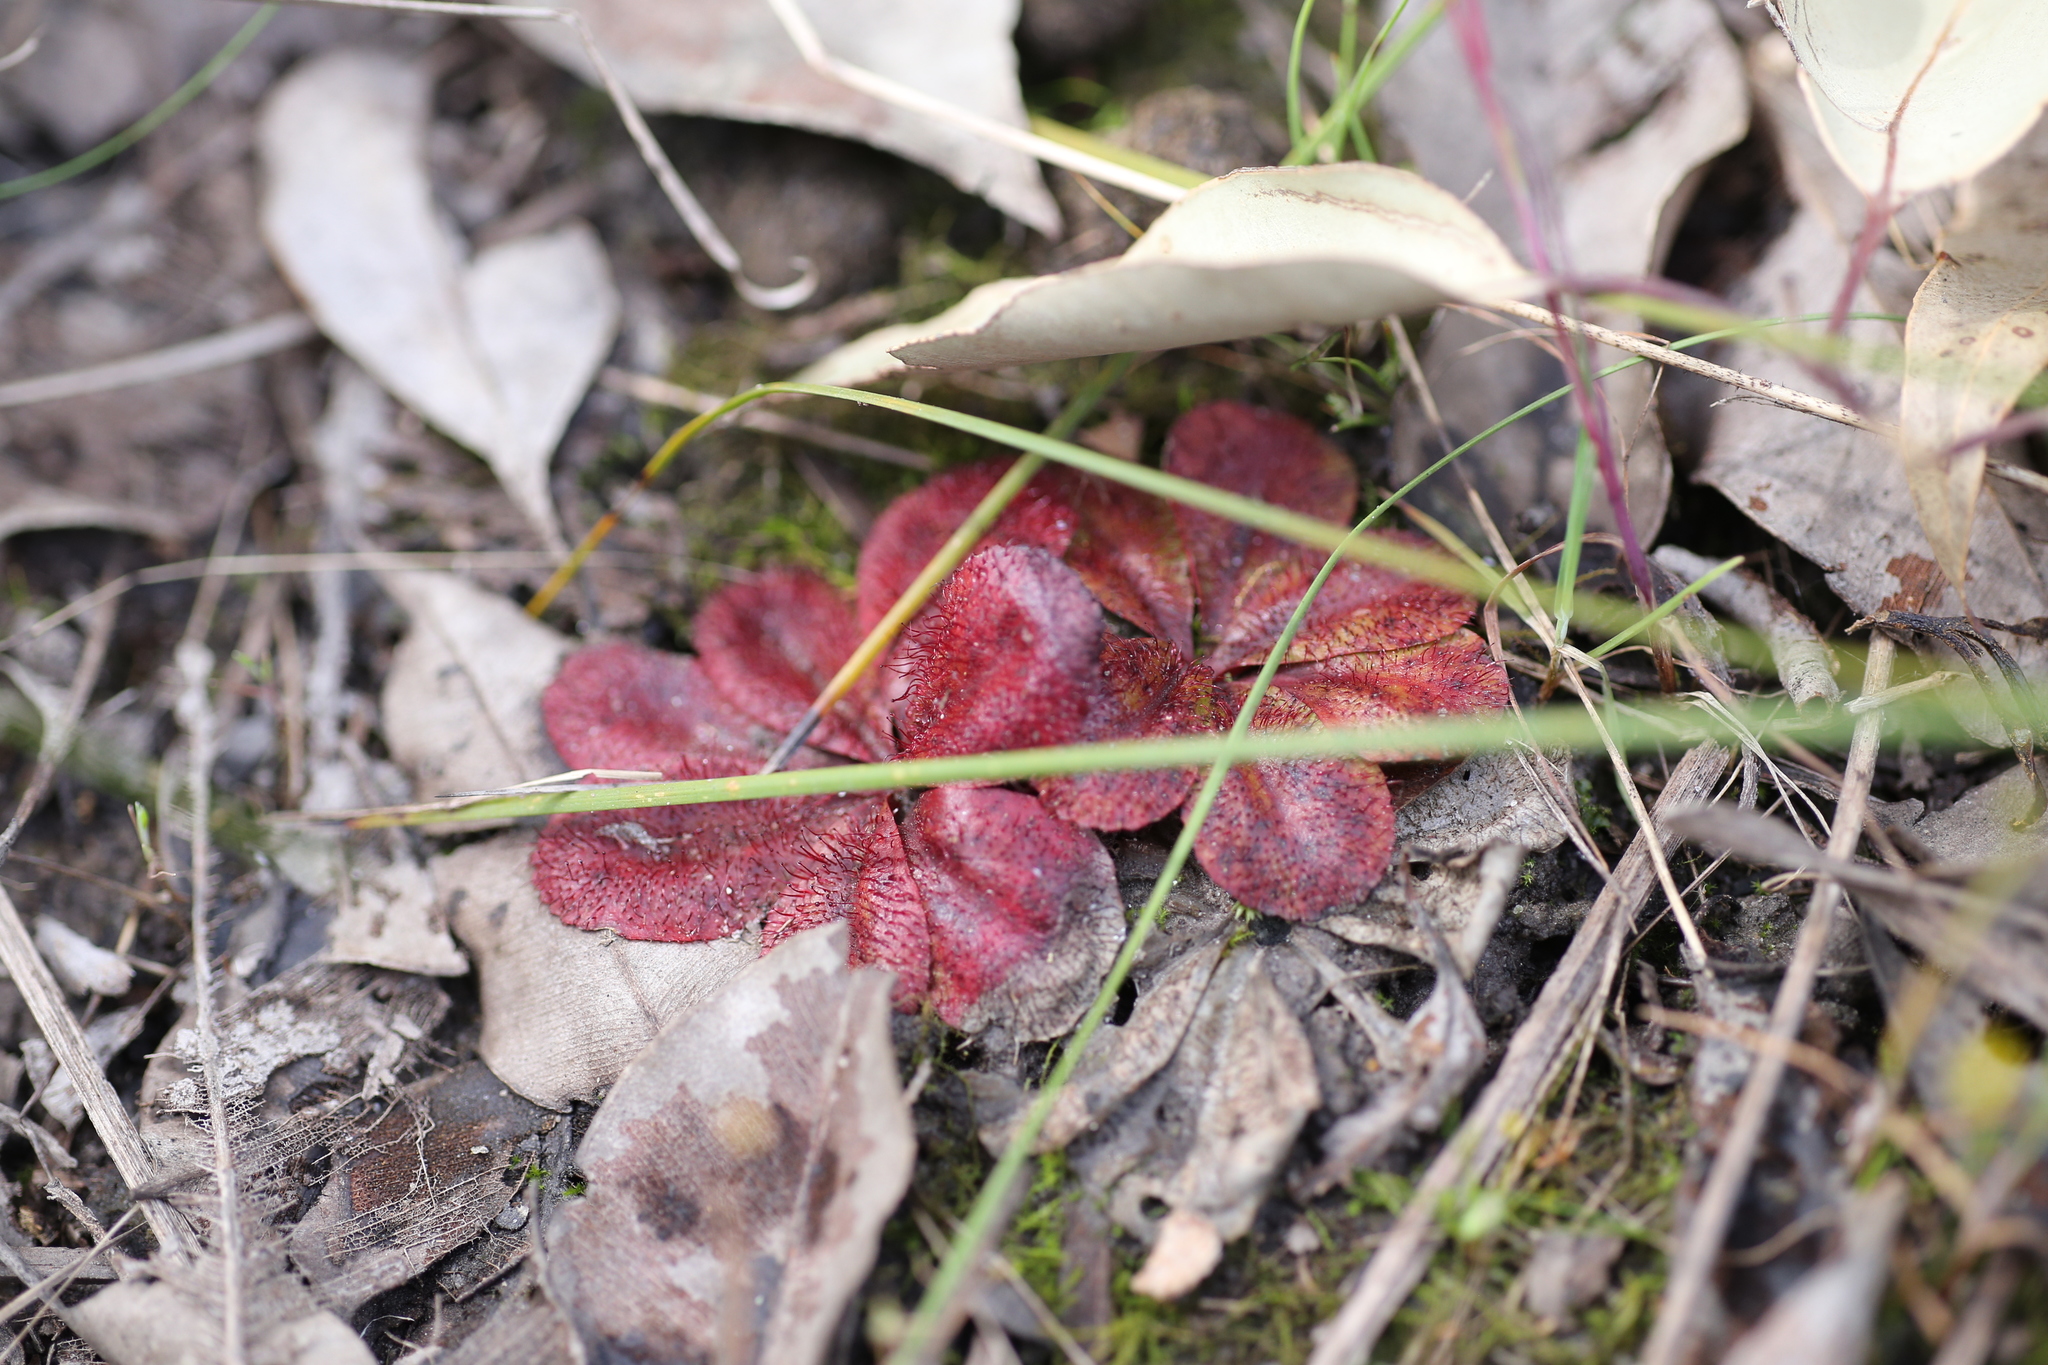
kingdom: Plantae
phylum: Tracheophyta
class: Magnoliopsida
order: Caryophyllales
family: Droseraceae
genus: Drosera
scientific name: Drosera rosulata
